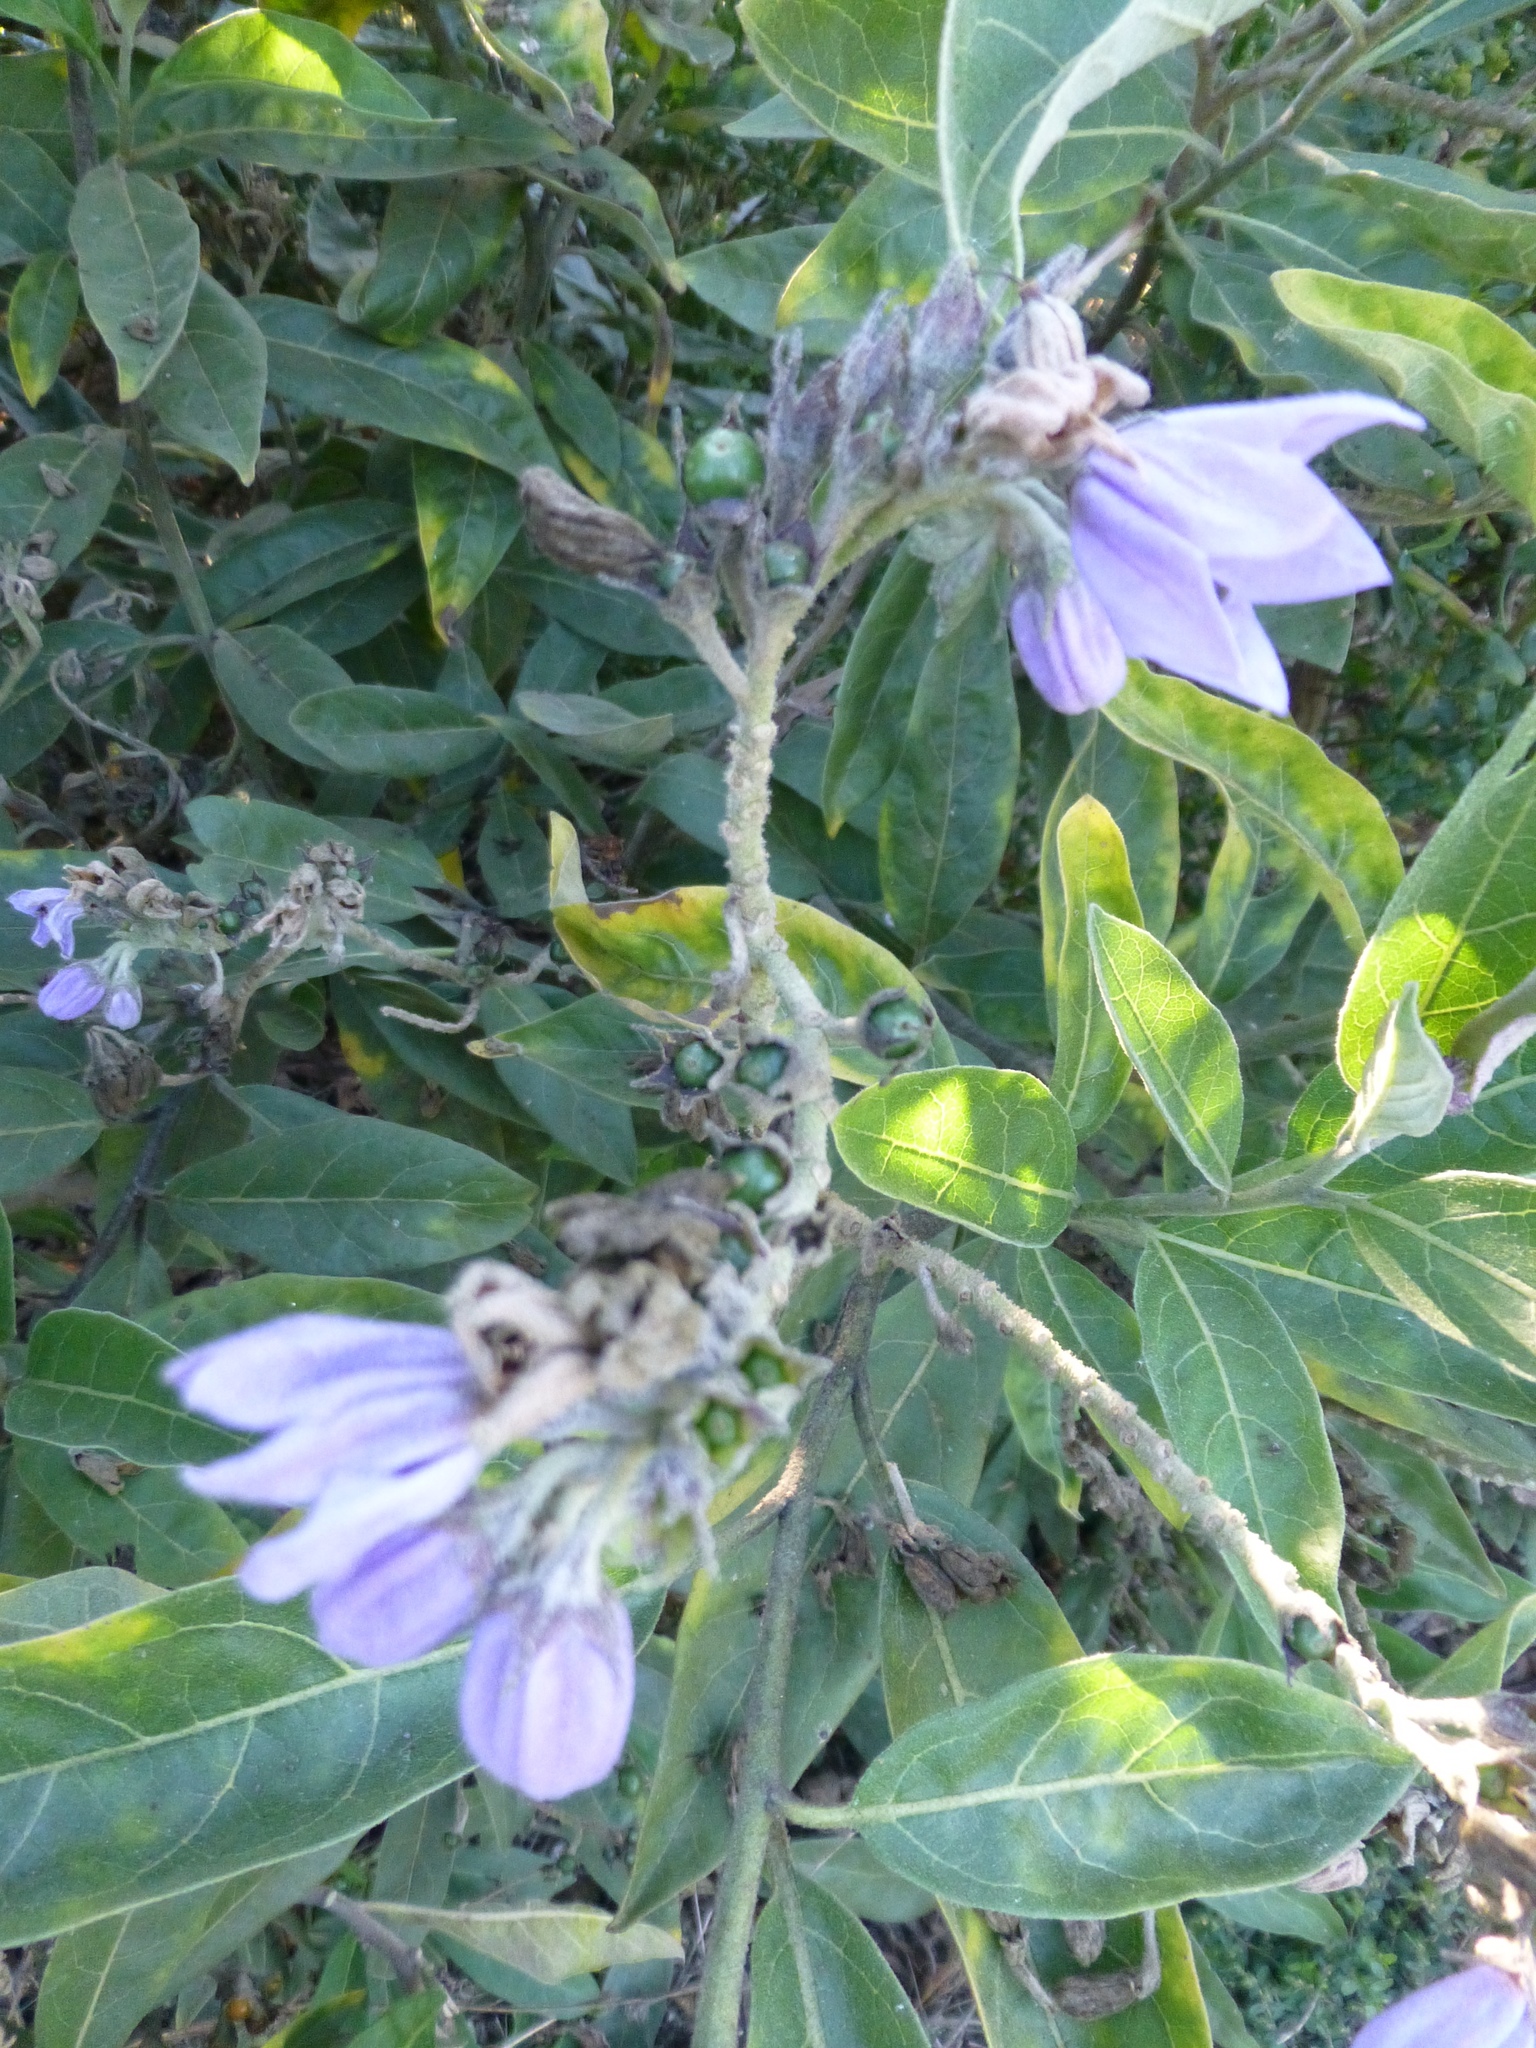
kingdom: Plantae
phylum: Tracheophyta
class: Magnoliopsida
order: Solanales
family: Solanaceae
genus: Solanum
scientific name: Solanum lanceolatum
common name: Orangeberry nightshade
